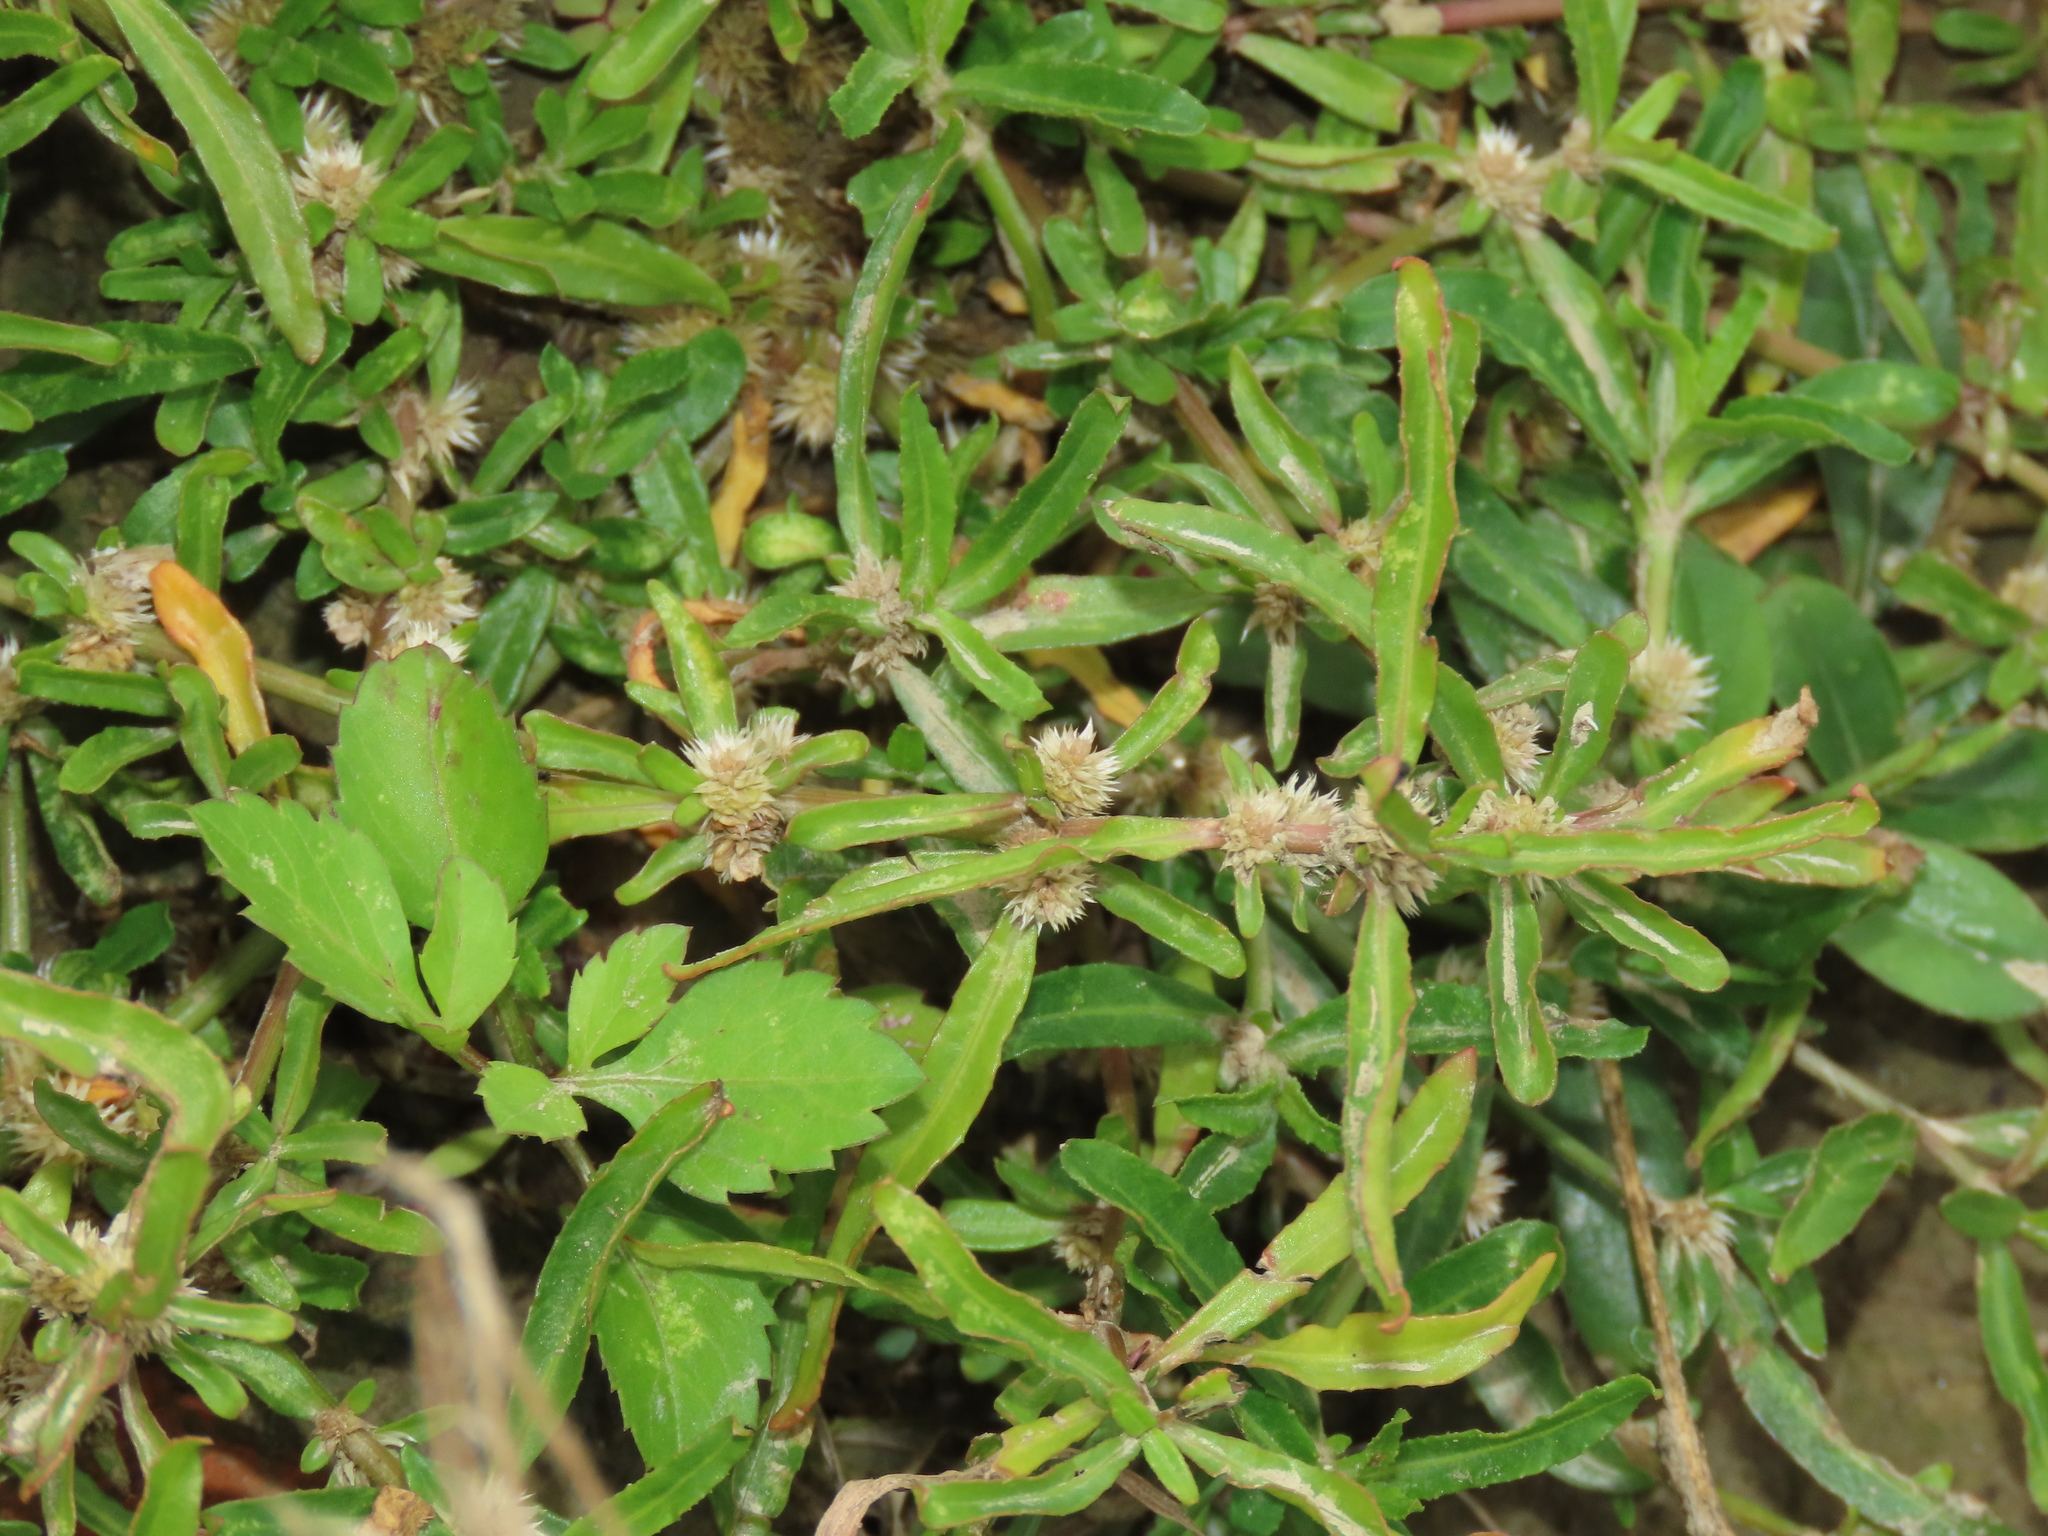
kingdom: Plantae
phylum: Tracheophyta
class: Magnoliopsida
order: Caryophyllales
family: Amaranthaceae
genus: Alternanthera
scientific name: Alternanthera sessilis
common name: Sessile joyweed
